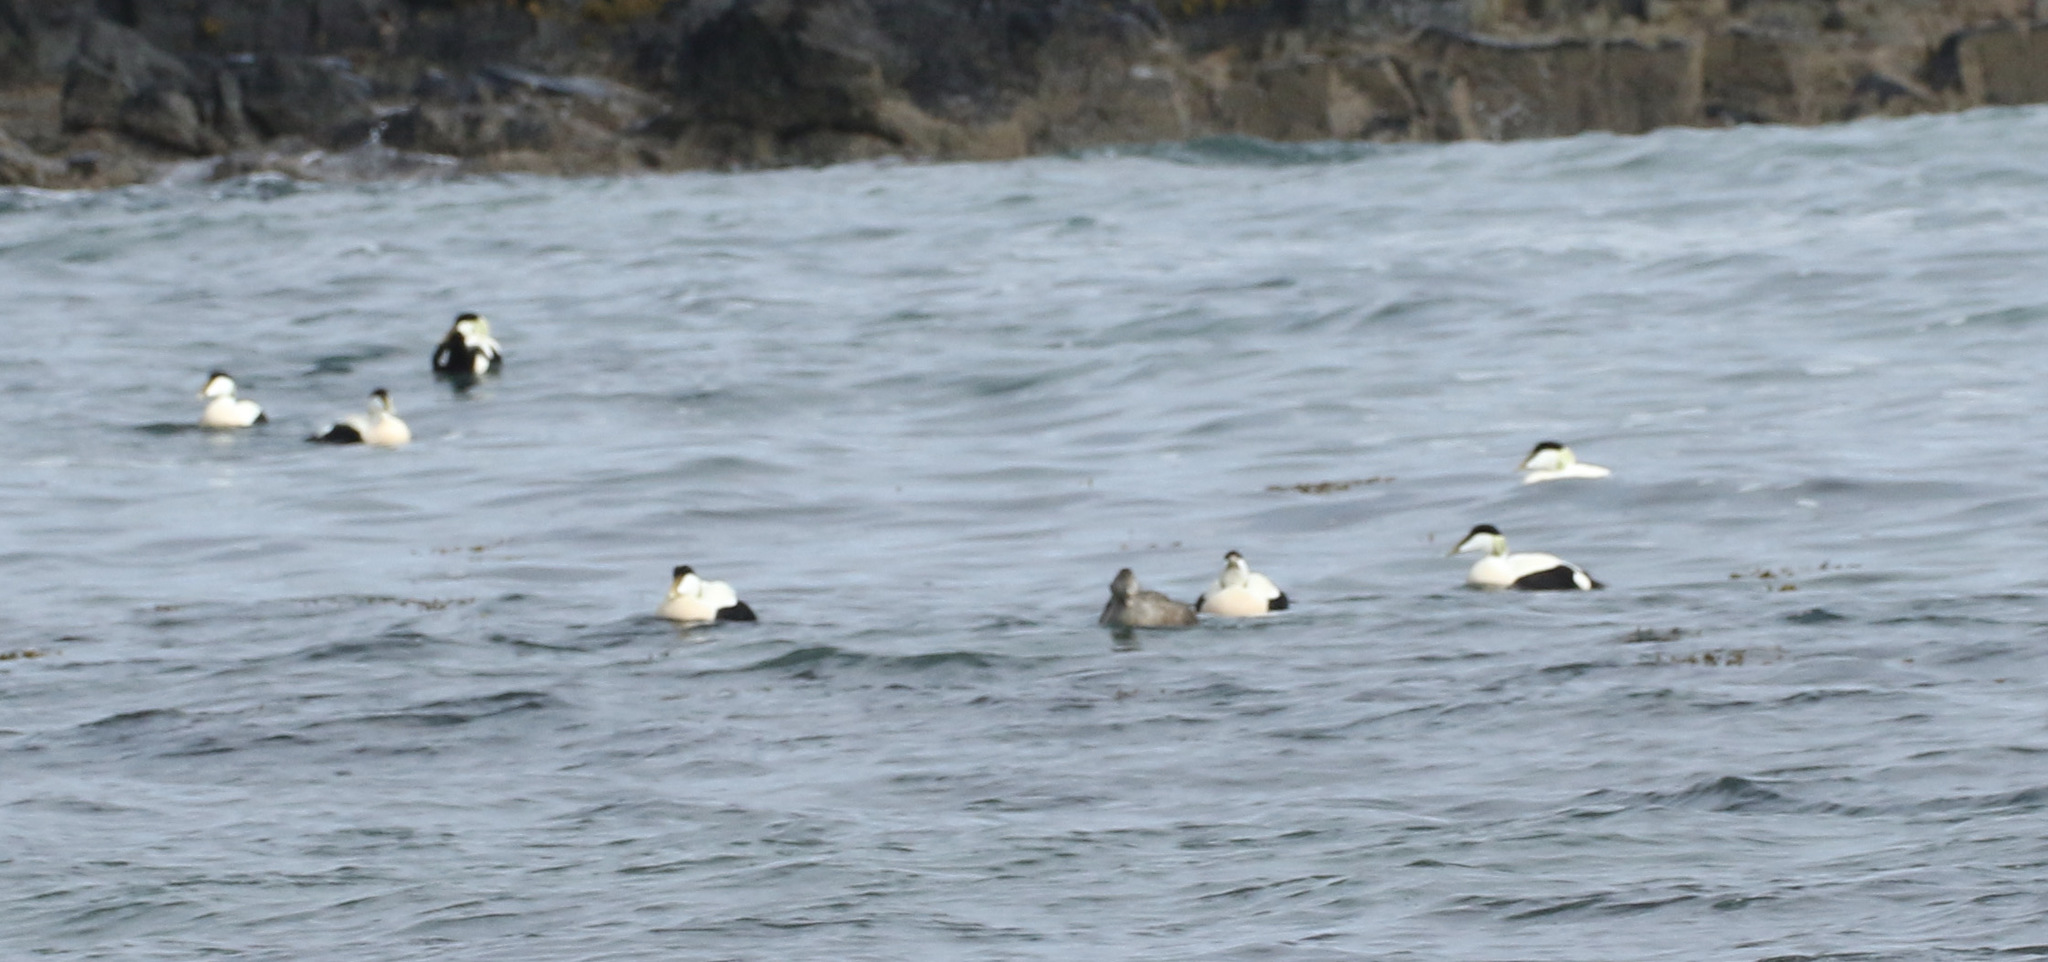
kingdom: Animalia
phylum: Chordata
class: Aves
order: Anseriformes
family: Anatidae
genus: Somateria
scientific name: Somateria mollissima
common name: Common eider
